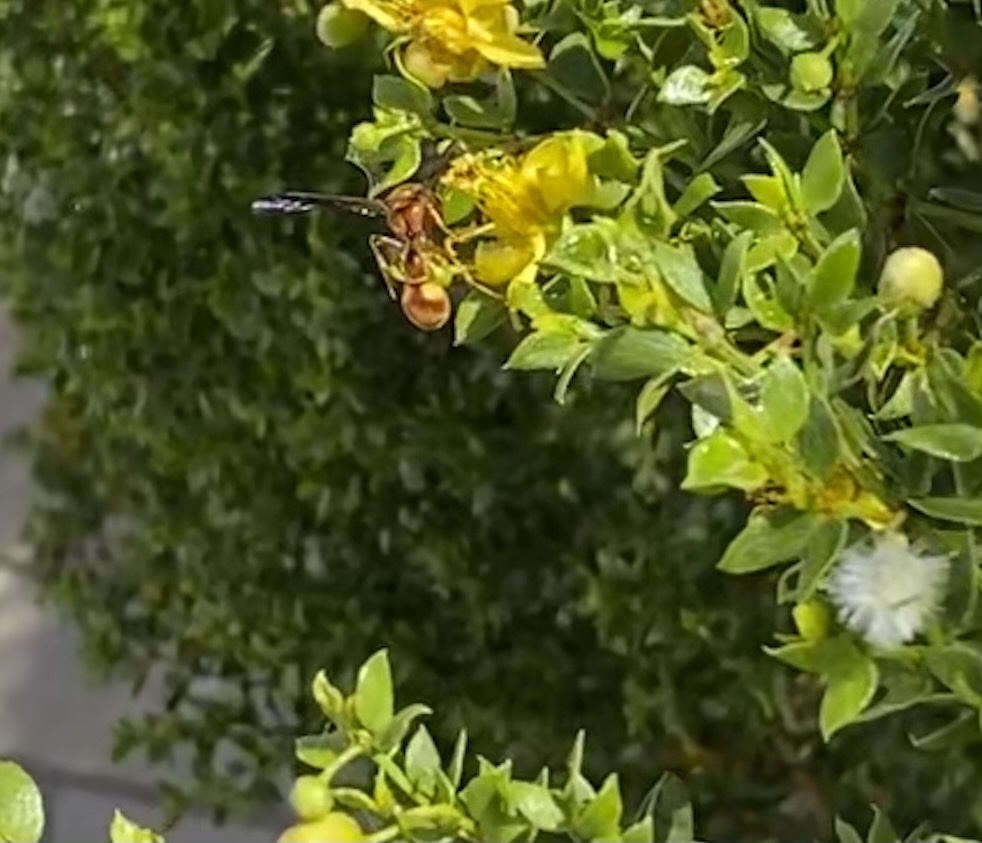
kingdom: Animalia
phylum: Arthropoda
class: Insecta
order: Hymenoptera
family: Vespidae
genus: Eumenes
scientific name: Eumenes bollii
